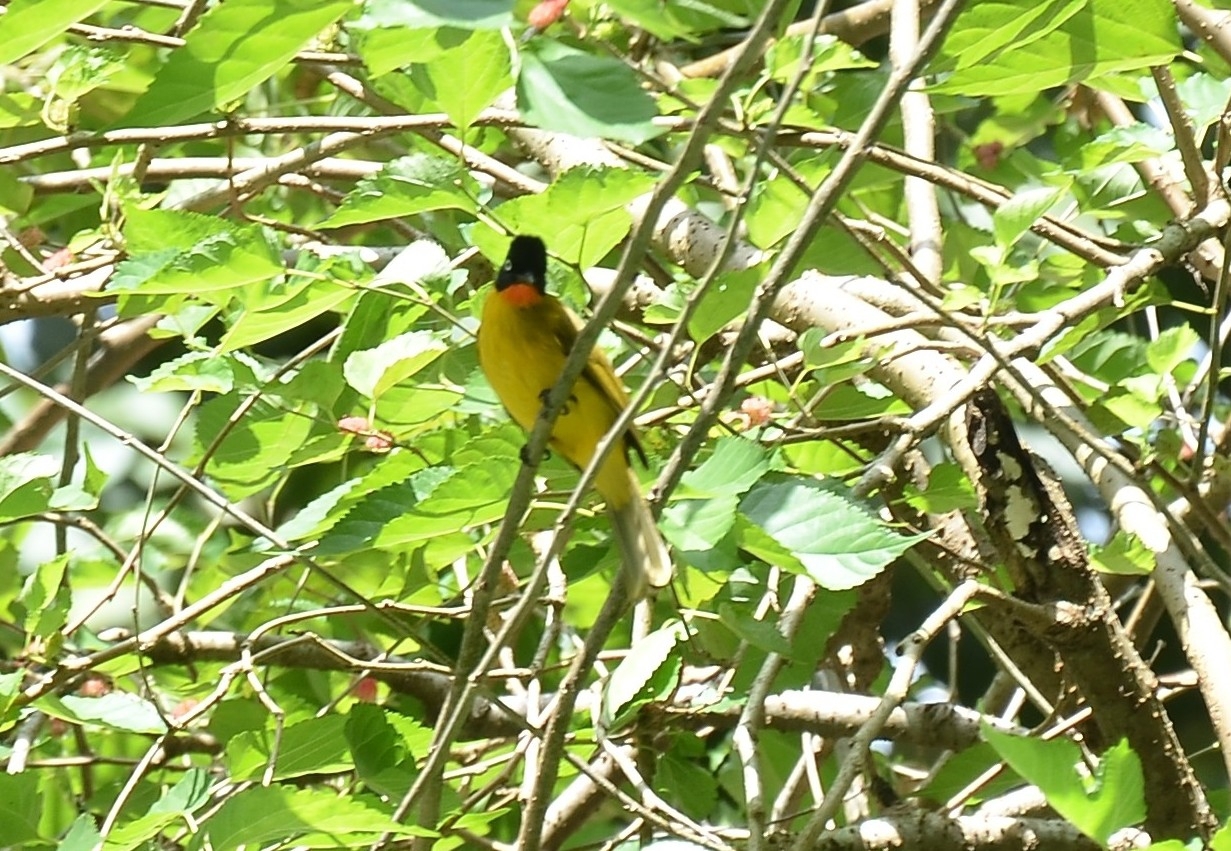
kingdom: Animalia
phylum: Chordata
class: Aves
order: Passeriformes
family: Pycnonotidae
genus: Pycnonotus
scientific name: Pycnonotus gularis
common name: Flame-throated bulbul
